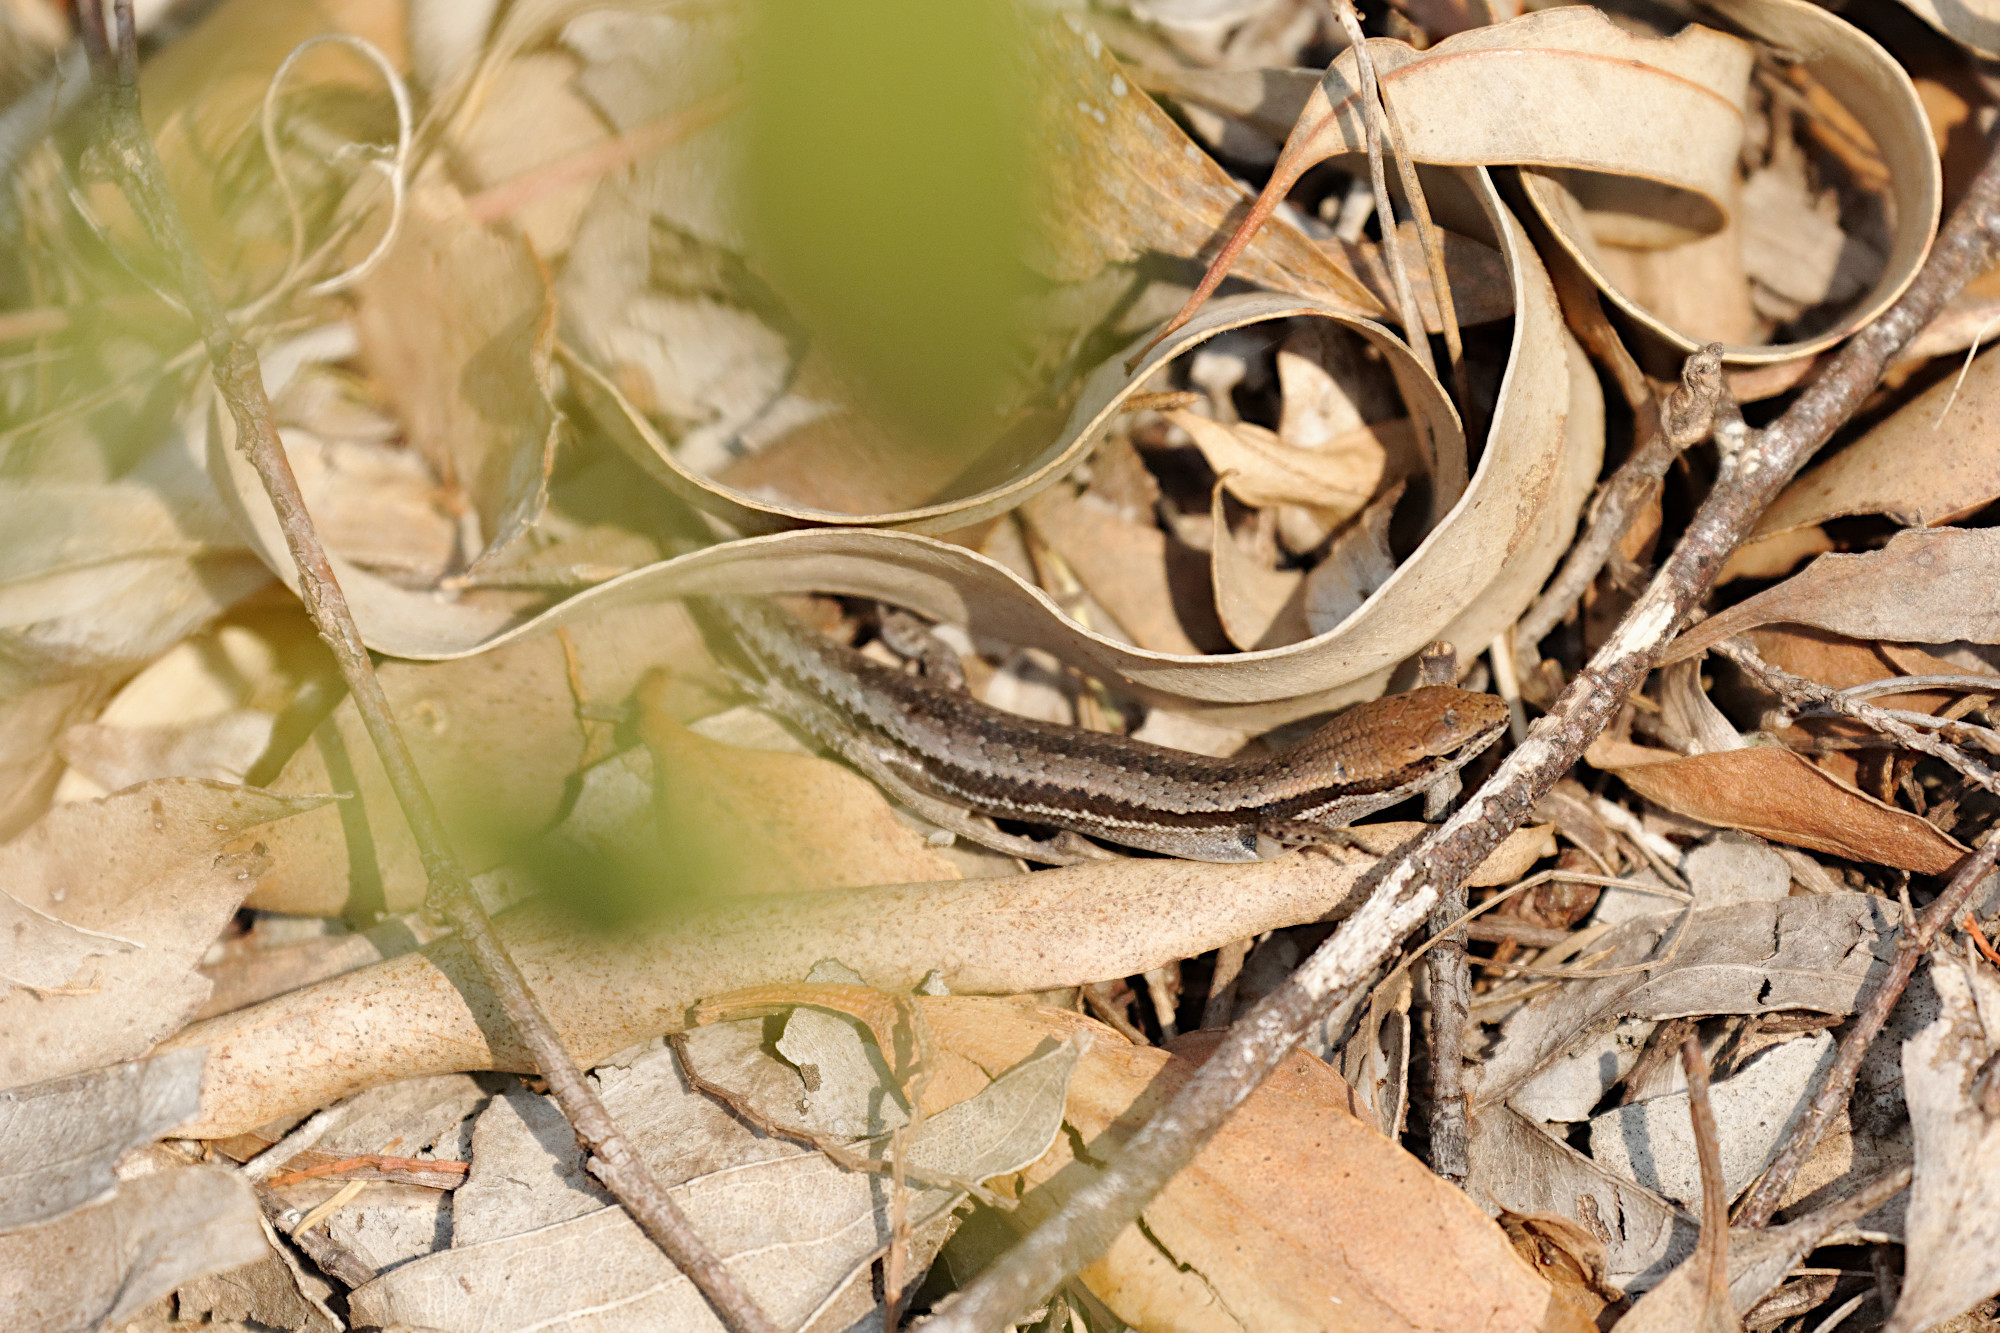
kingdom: Animalia
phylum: Chordata
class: Squamata
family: Scincidae
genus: Lampropholis
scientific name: Lampropholis guichenoti
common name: Garden skink
